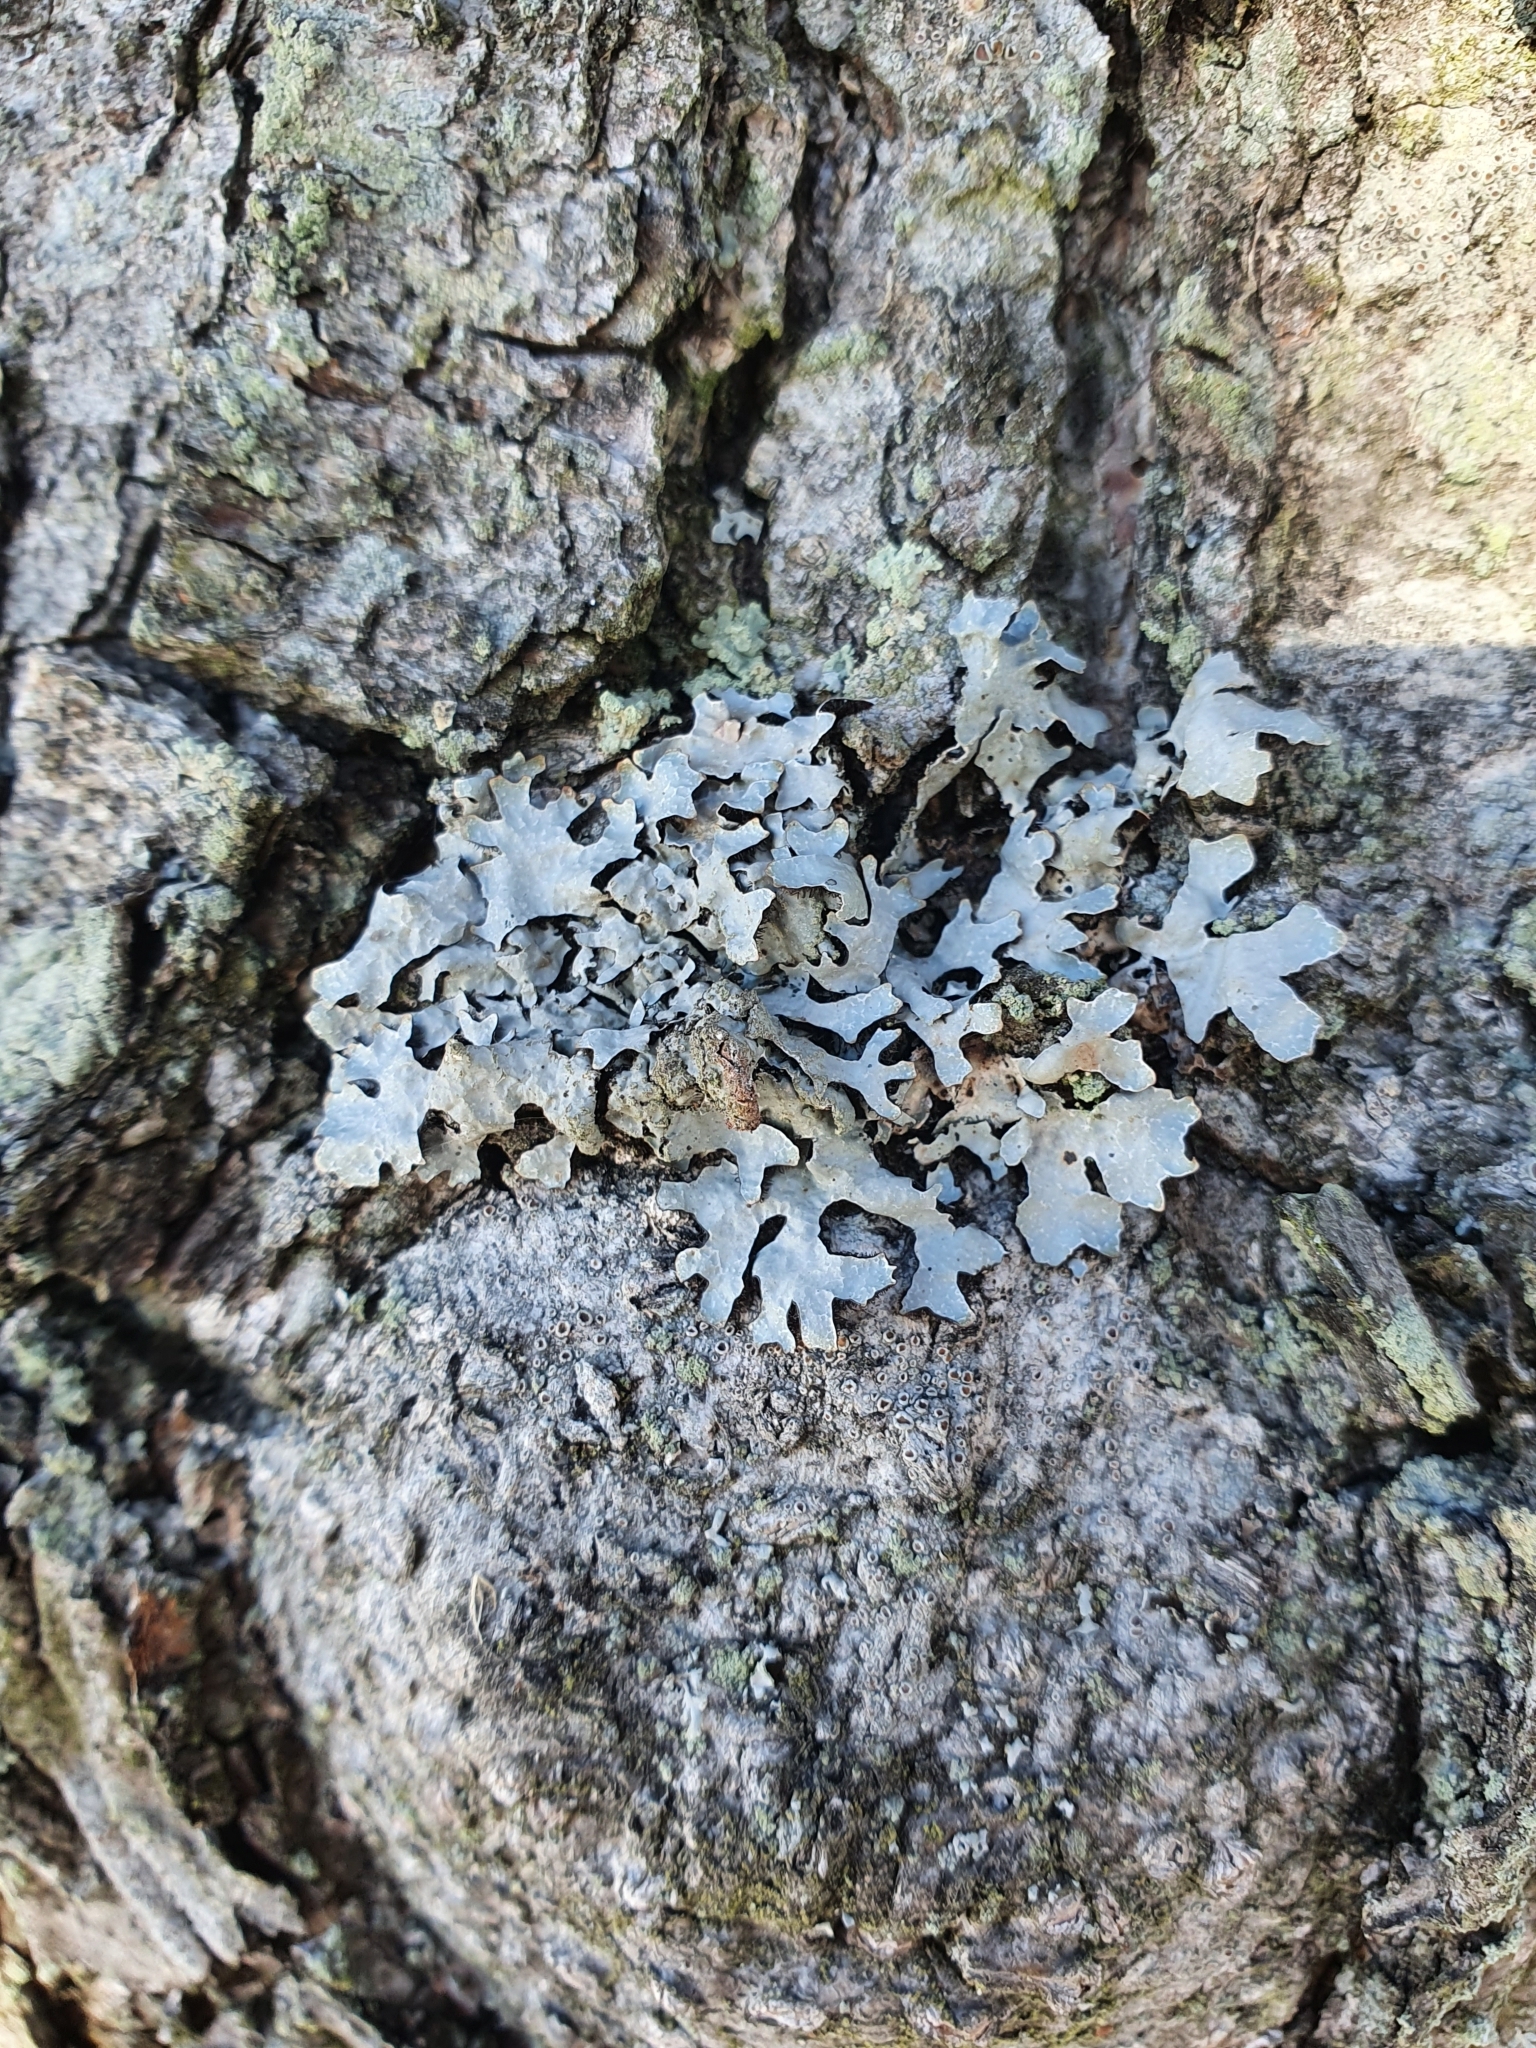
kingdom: Fungi
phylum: Ascomycota
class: Lecanoromycetes
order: Lecanorales
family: Parmeliaceae
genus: Parmelia
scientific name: Parmelia sulcata
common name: Netted shield lichen
